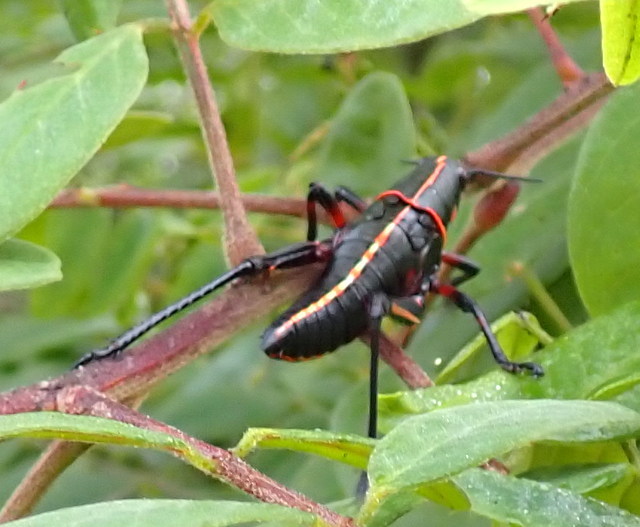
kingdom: Animalia
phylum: Arthropoda
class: Insecta
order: Orthoptera
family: Romaleidae
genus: Romalea
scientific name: Romalea microptera
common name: Eastern lubber grasshopper
